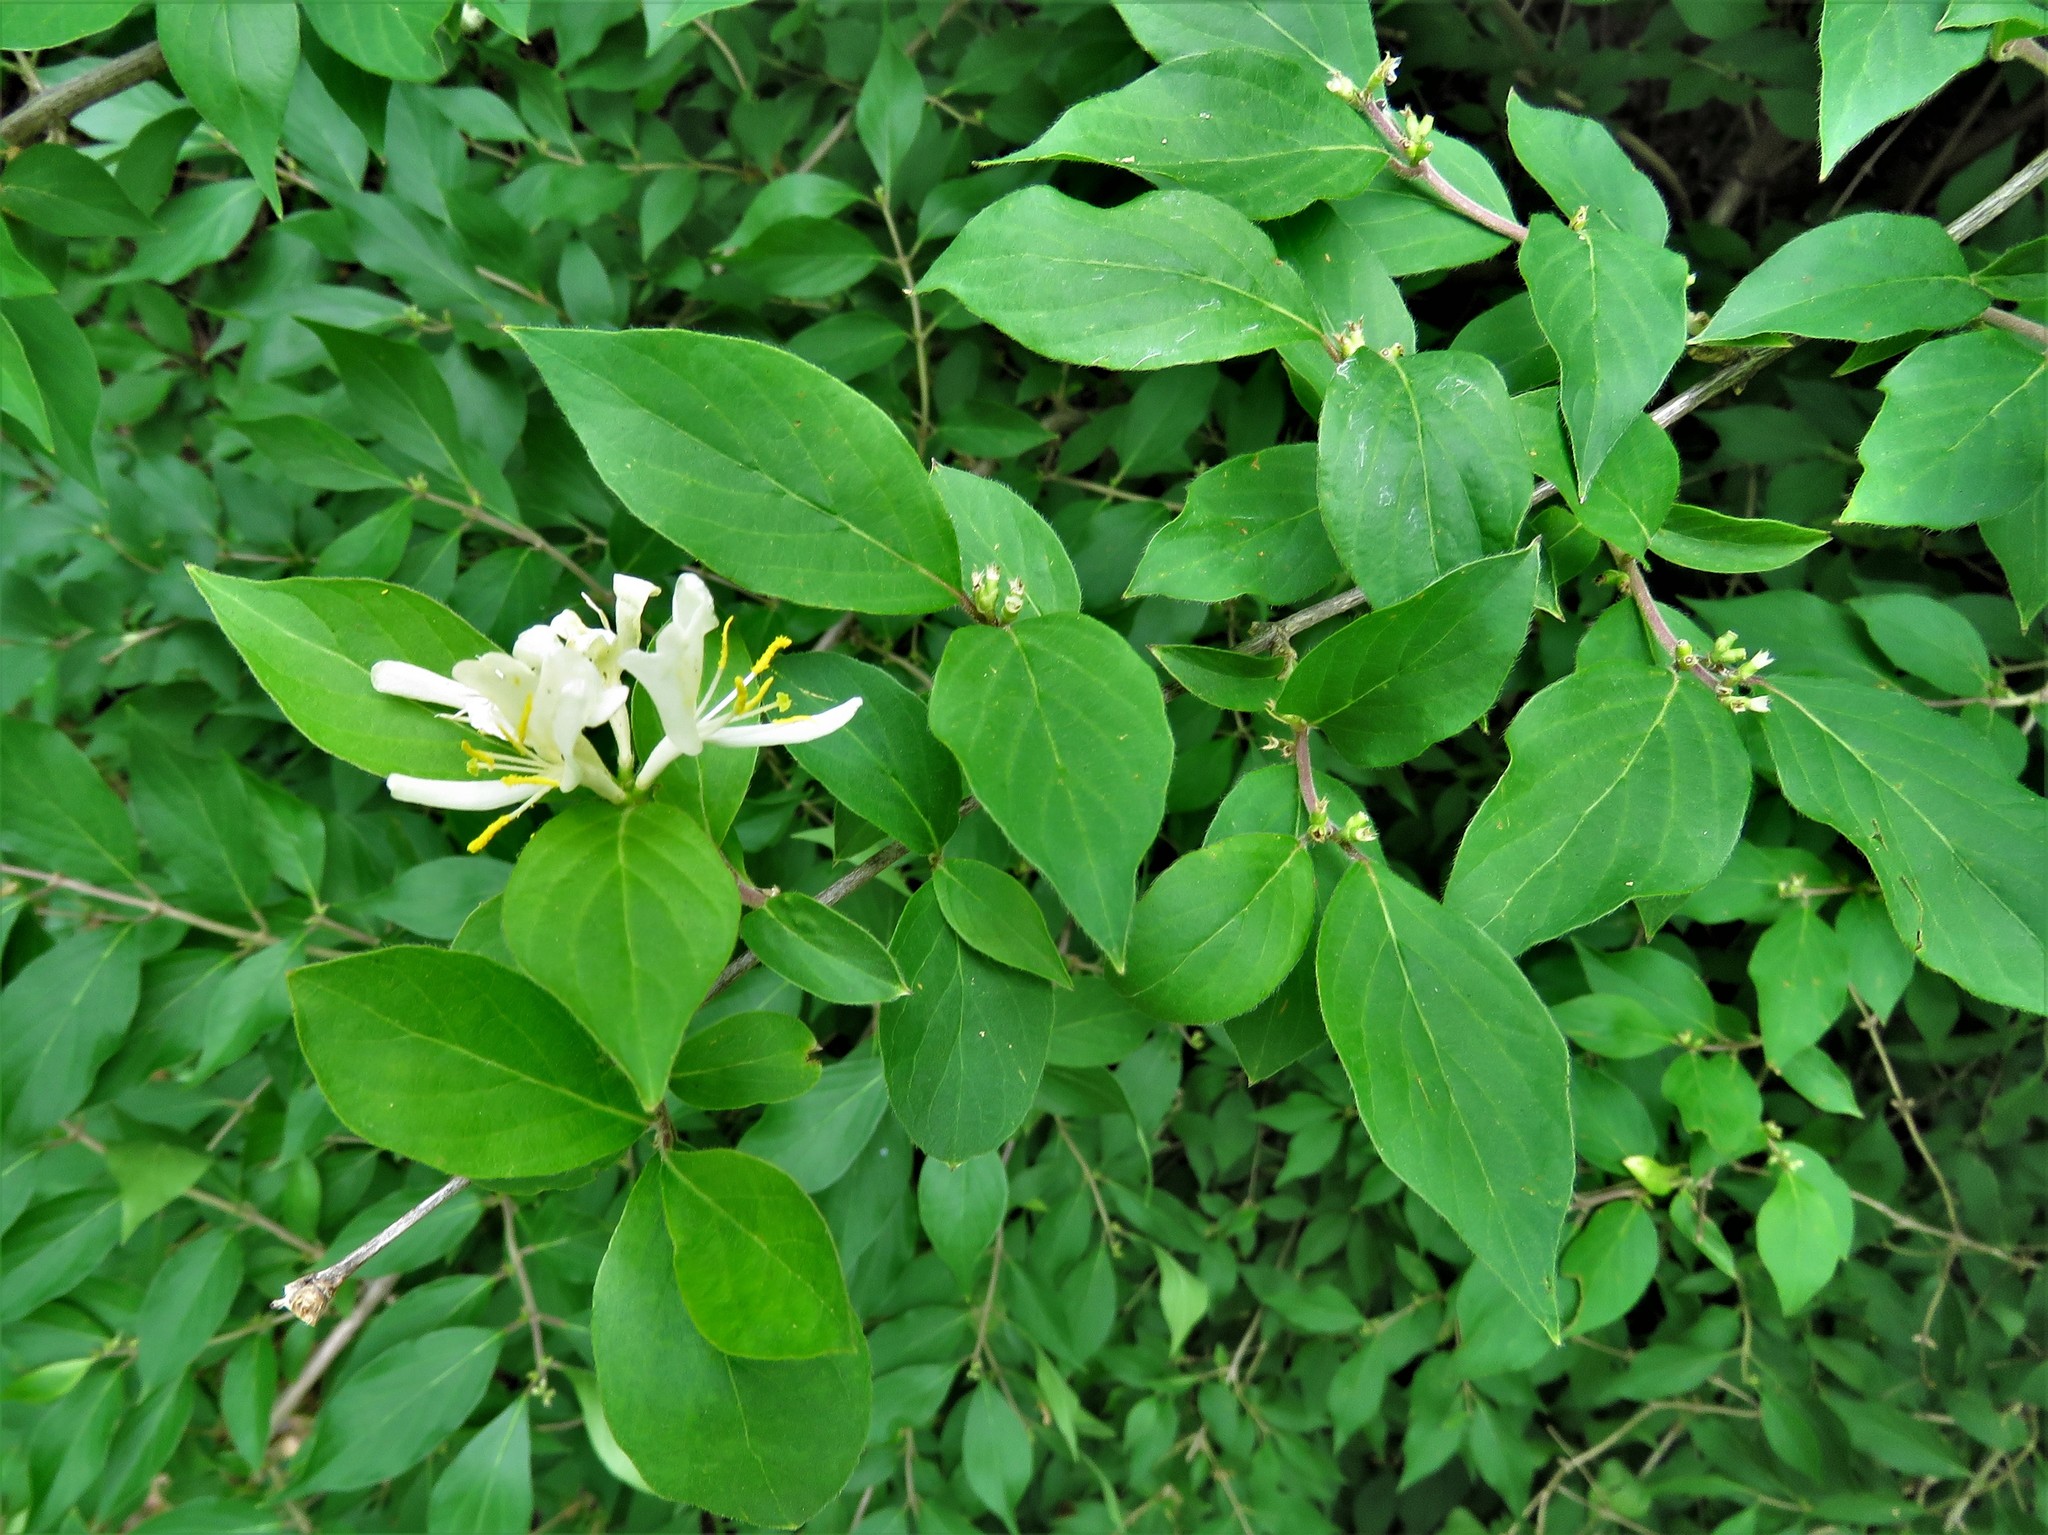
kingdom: Plantae
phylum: Tracheophyta
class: Magnoliopsida
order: Dipsacales
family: Caprifoliaceae
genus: Lonicera
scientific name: Lonicera maackii
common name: Amur honeysuckle
